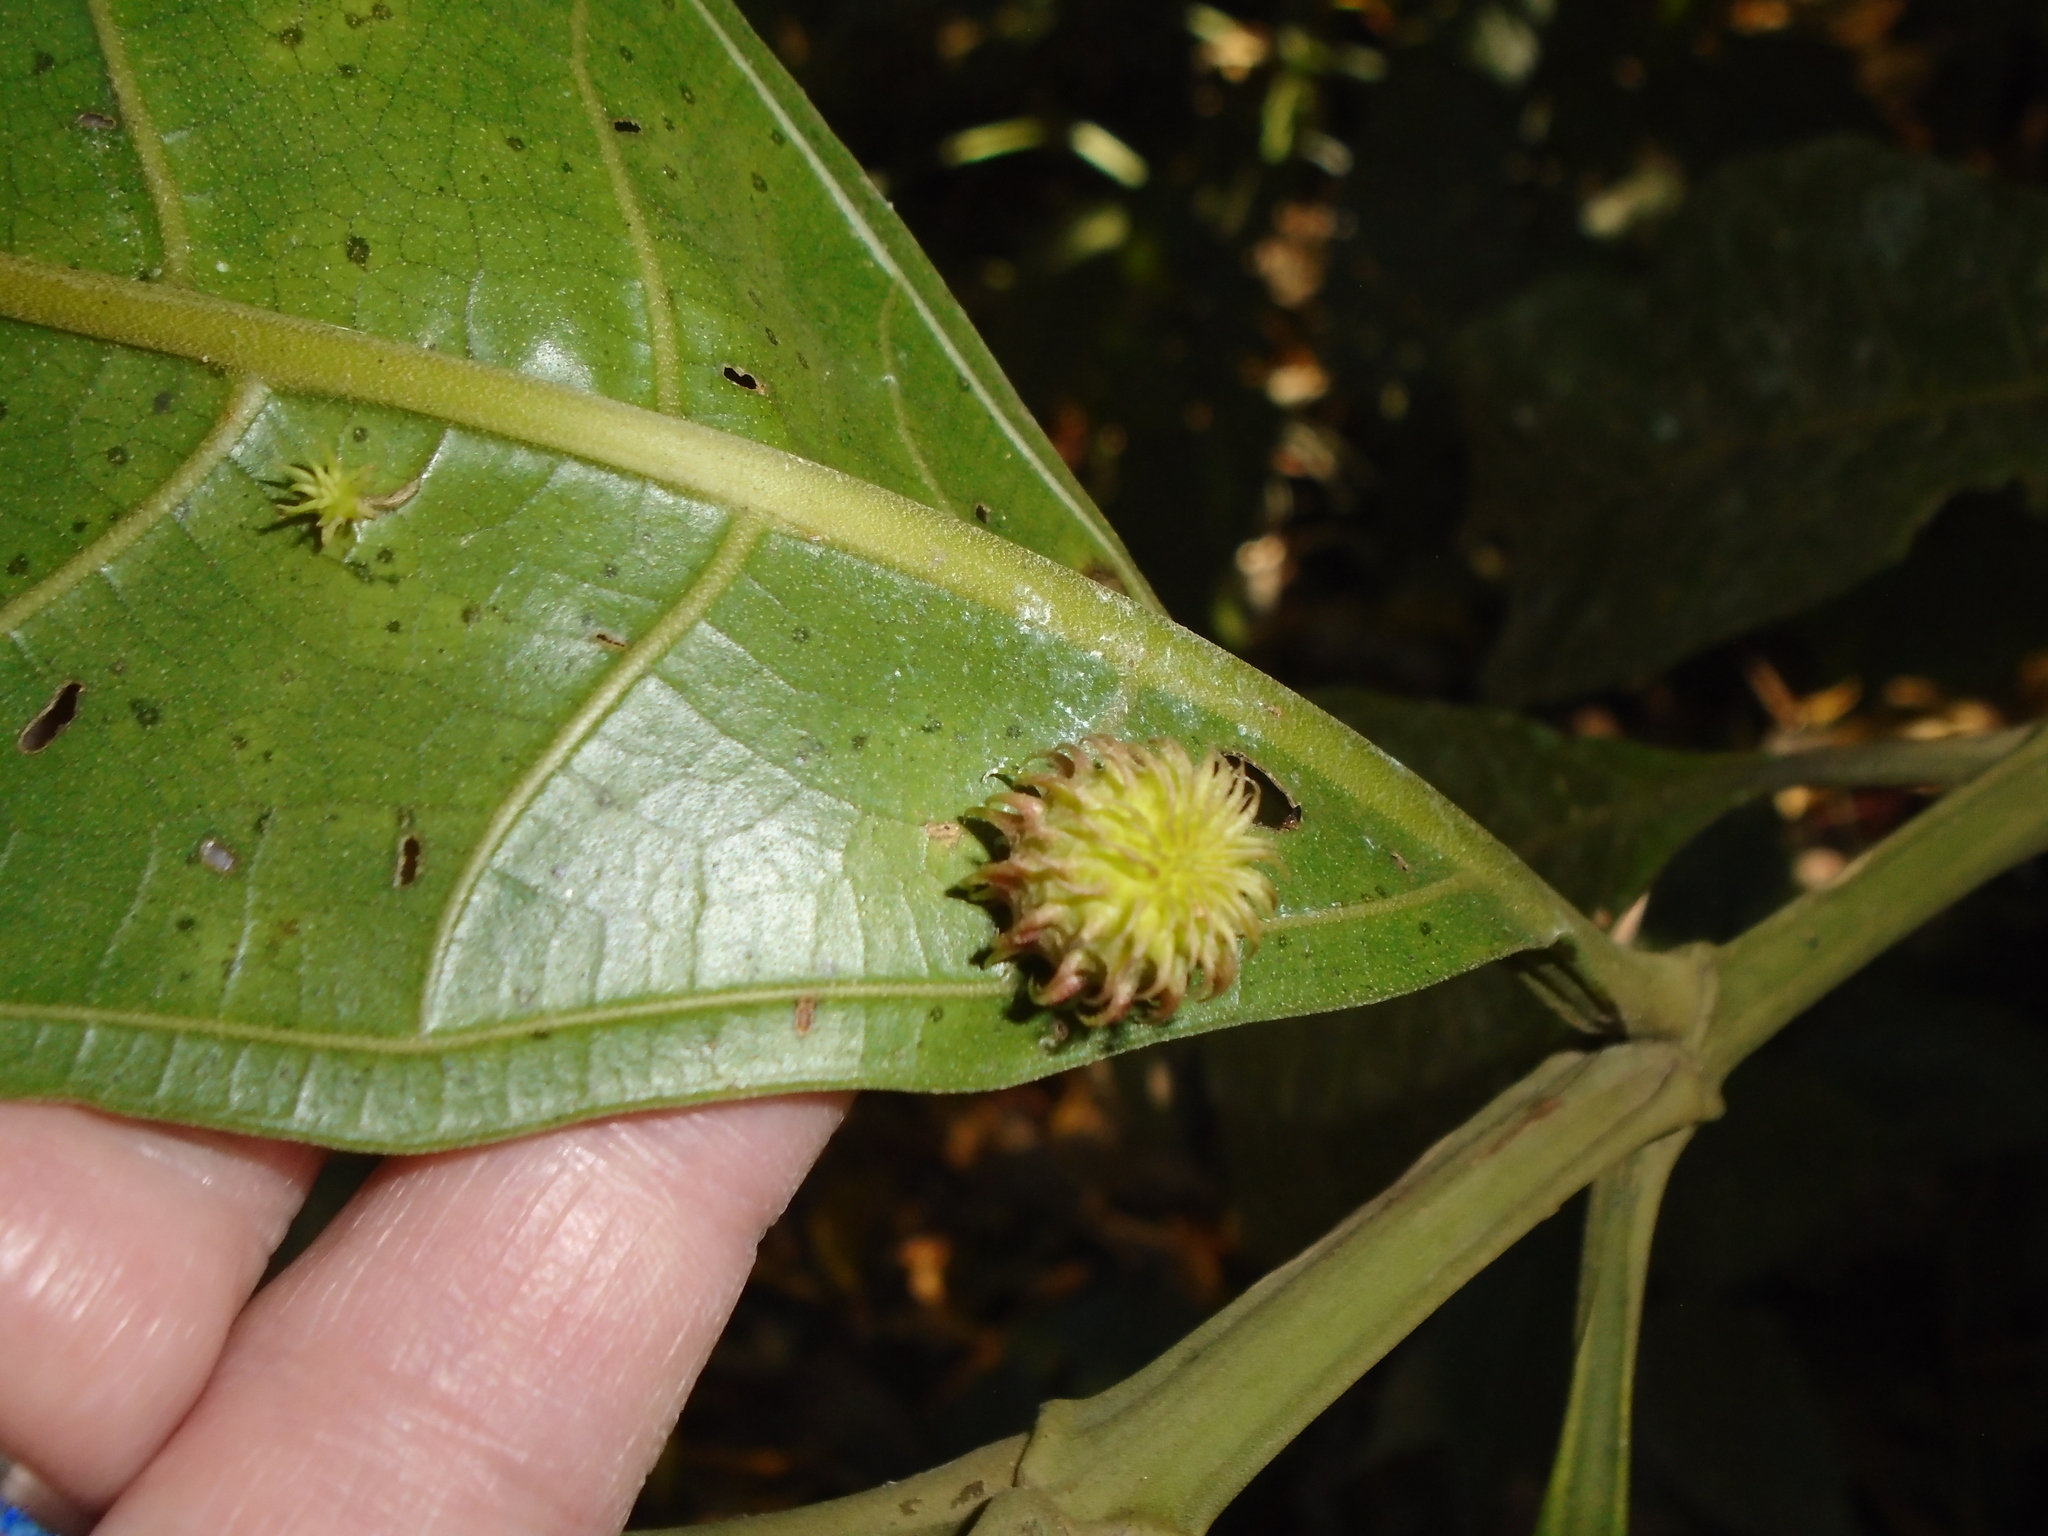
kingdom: Plantae
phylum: Tracheophyta
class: Magnoliopsida
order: Myrtales
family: Melastomataceae
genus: Miconia
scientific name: Miconia trinervia
